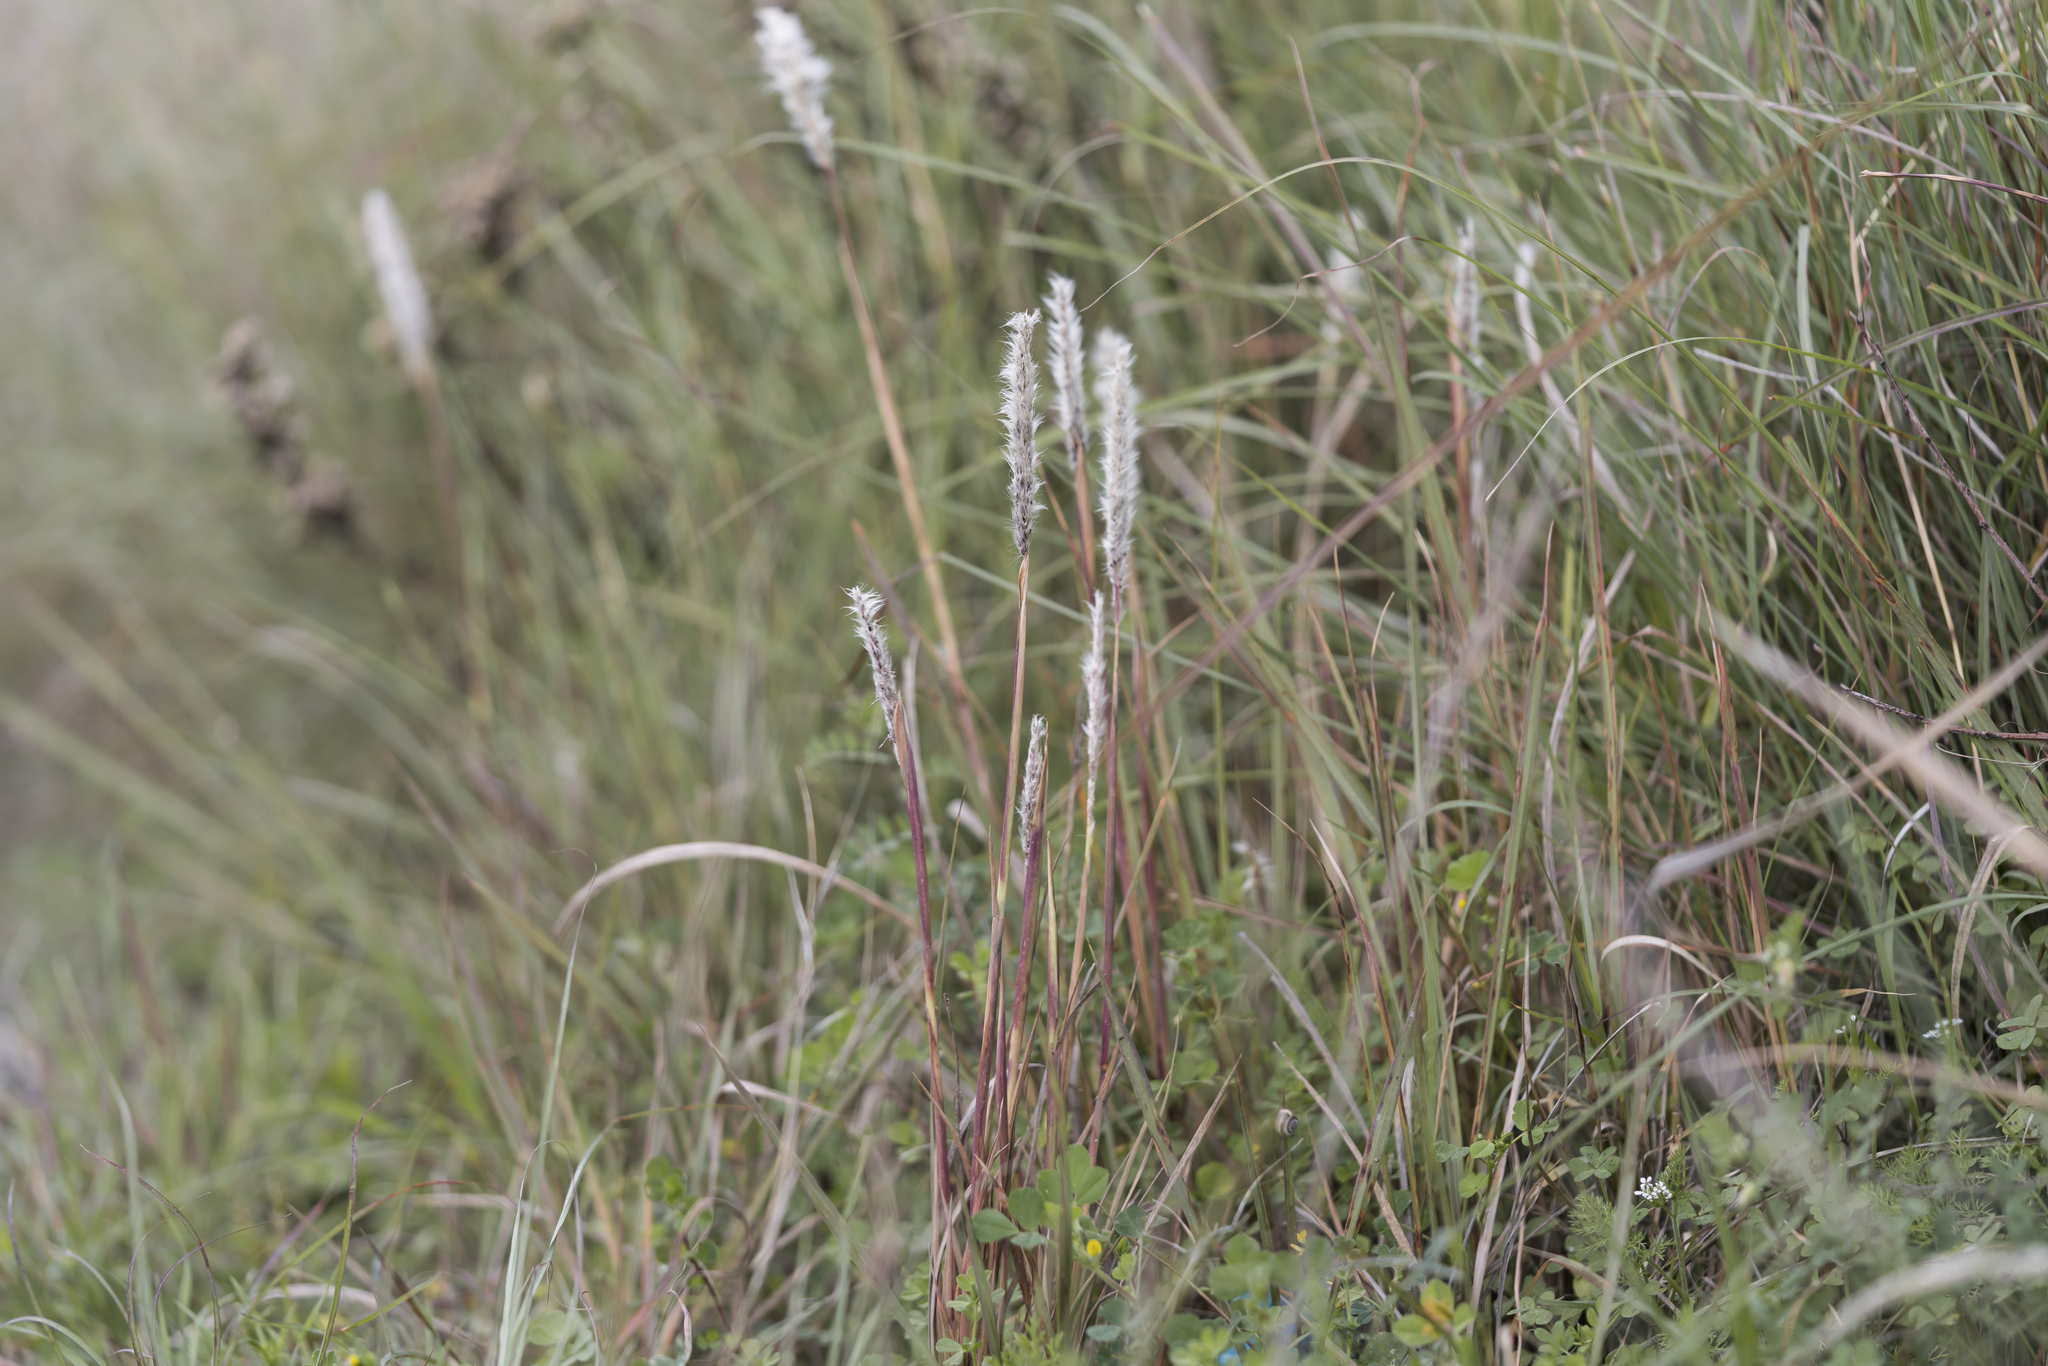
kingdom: Plantae
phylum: Tracheophyta
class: Liliopsida
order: Poales
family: Poaceae
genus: Imperata
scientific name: Imperata cylindrica
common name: Cogongrass
